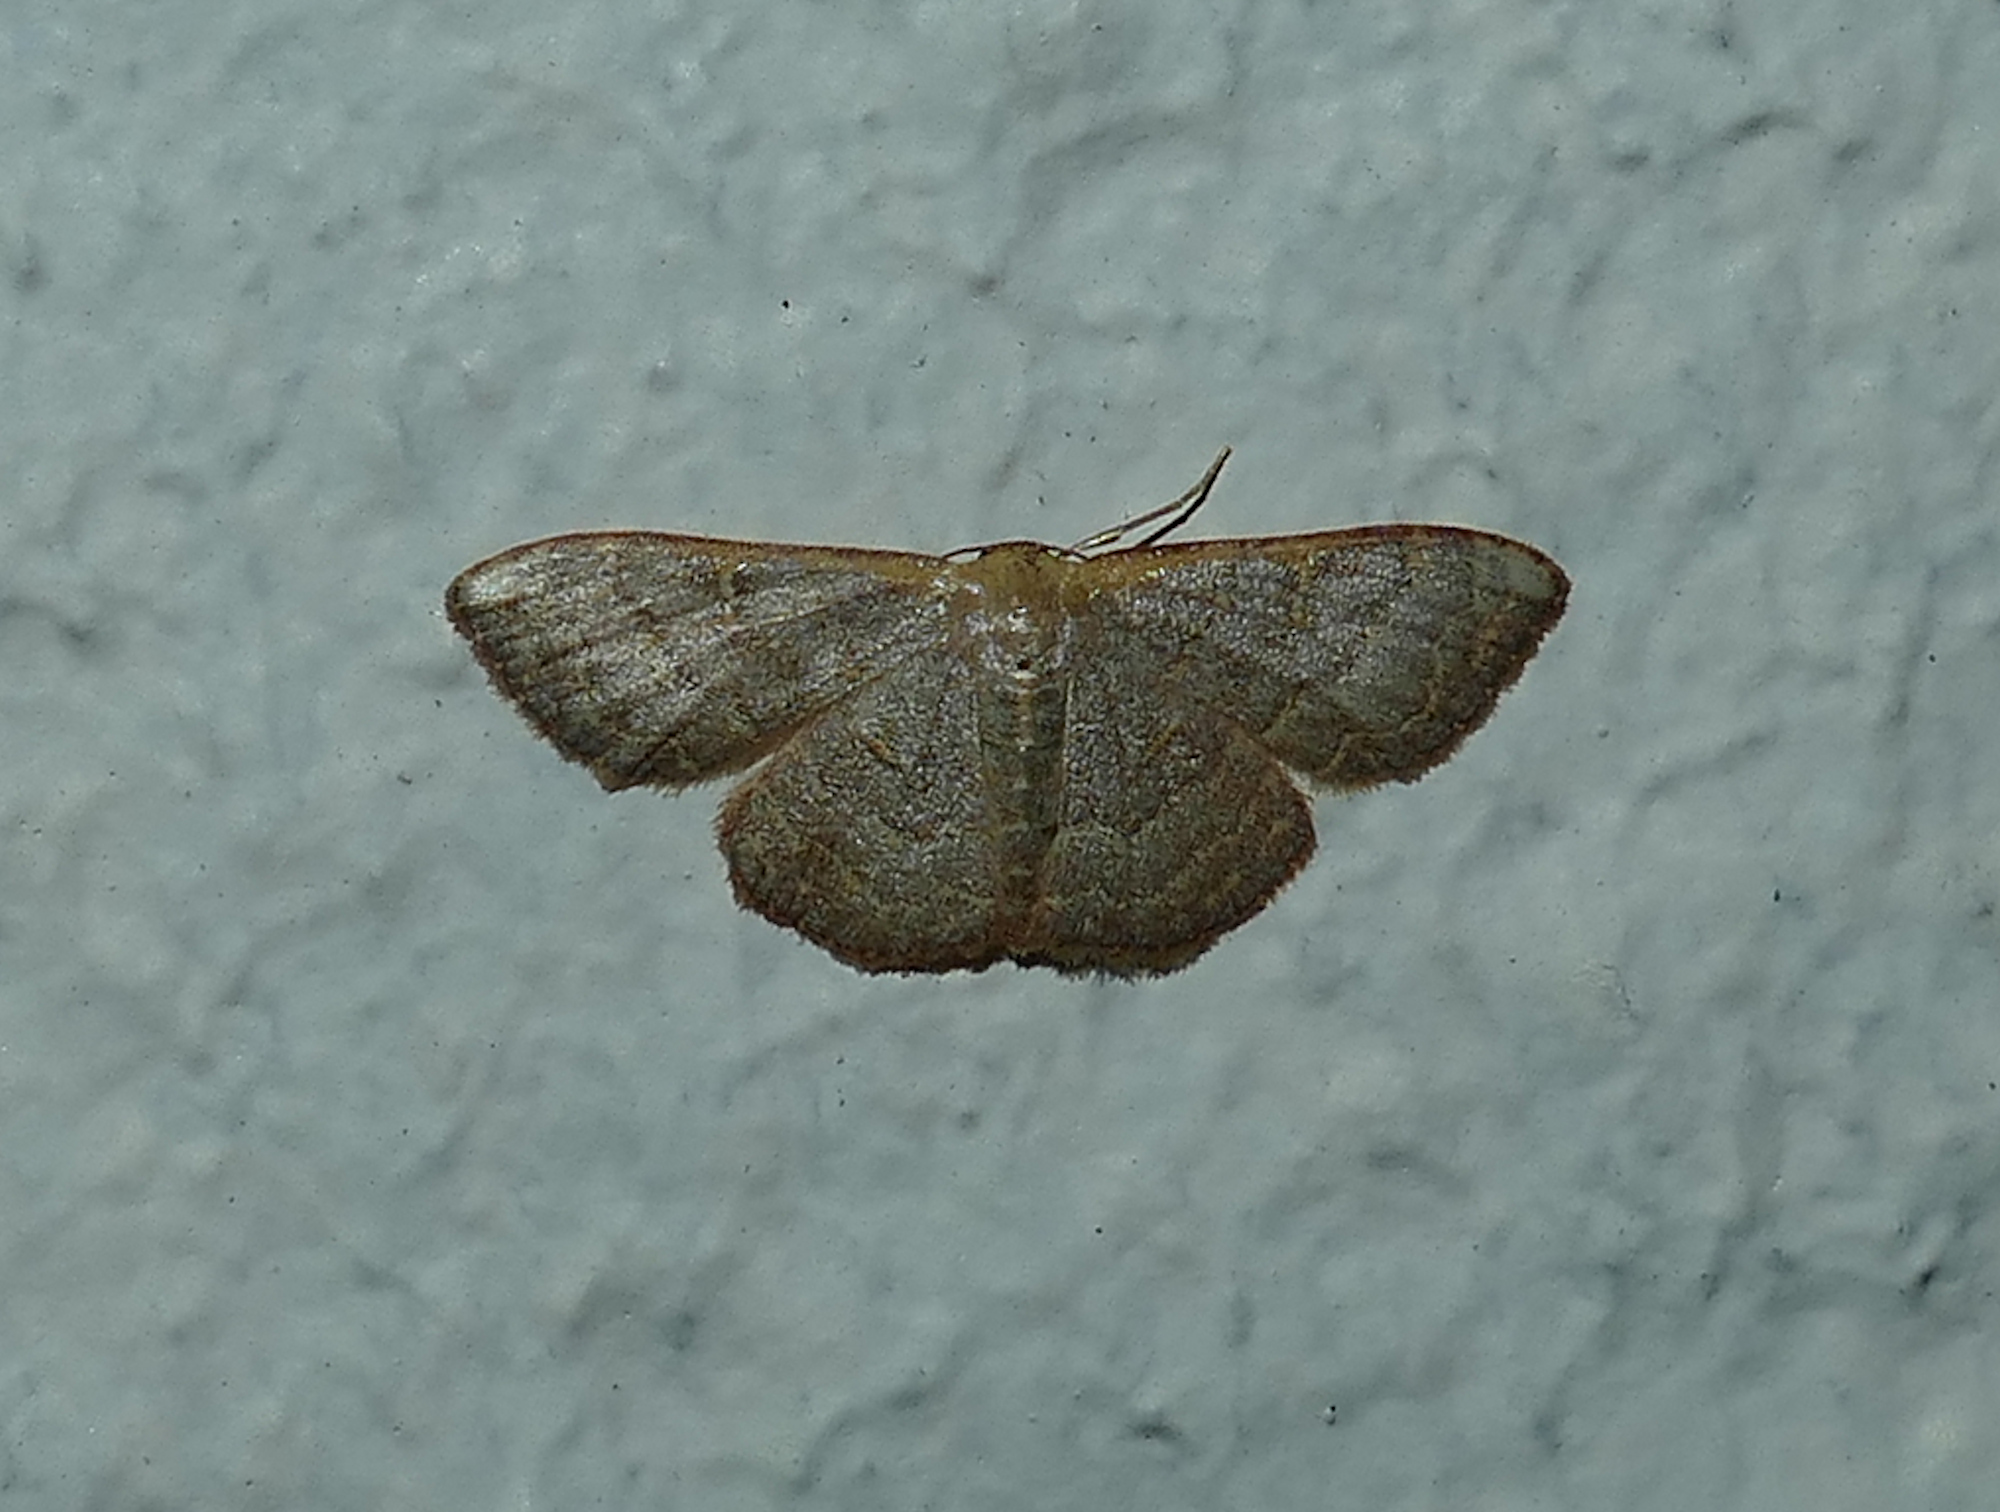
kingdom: Animalia
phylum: Arthropoda
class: Insecta
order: Lepidoptera
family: Geometridae
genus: Leptostales
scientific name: Leptostales pannaria
